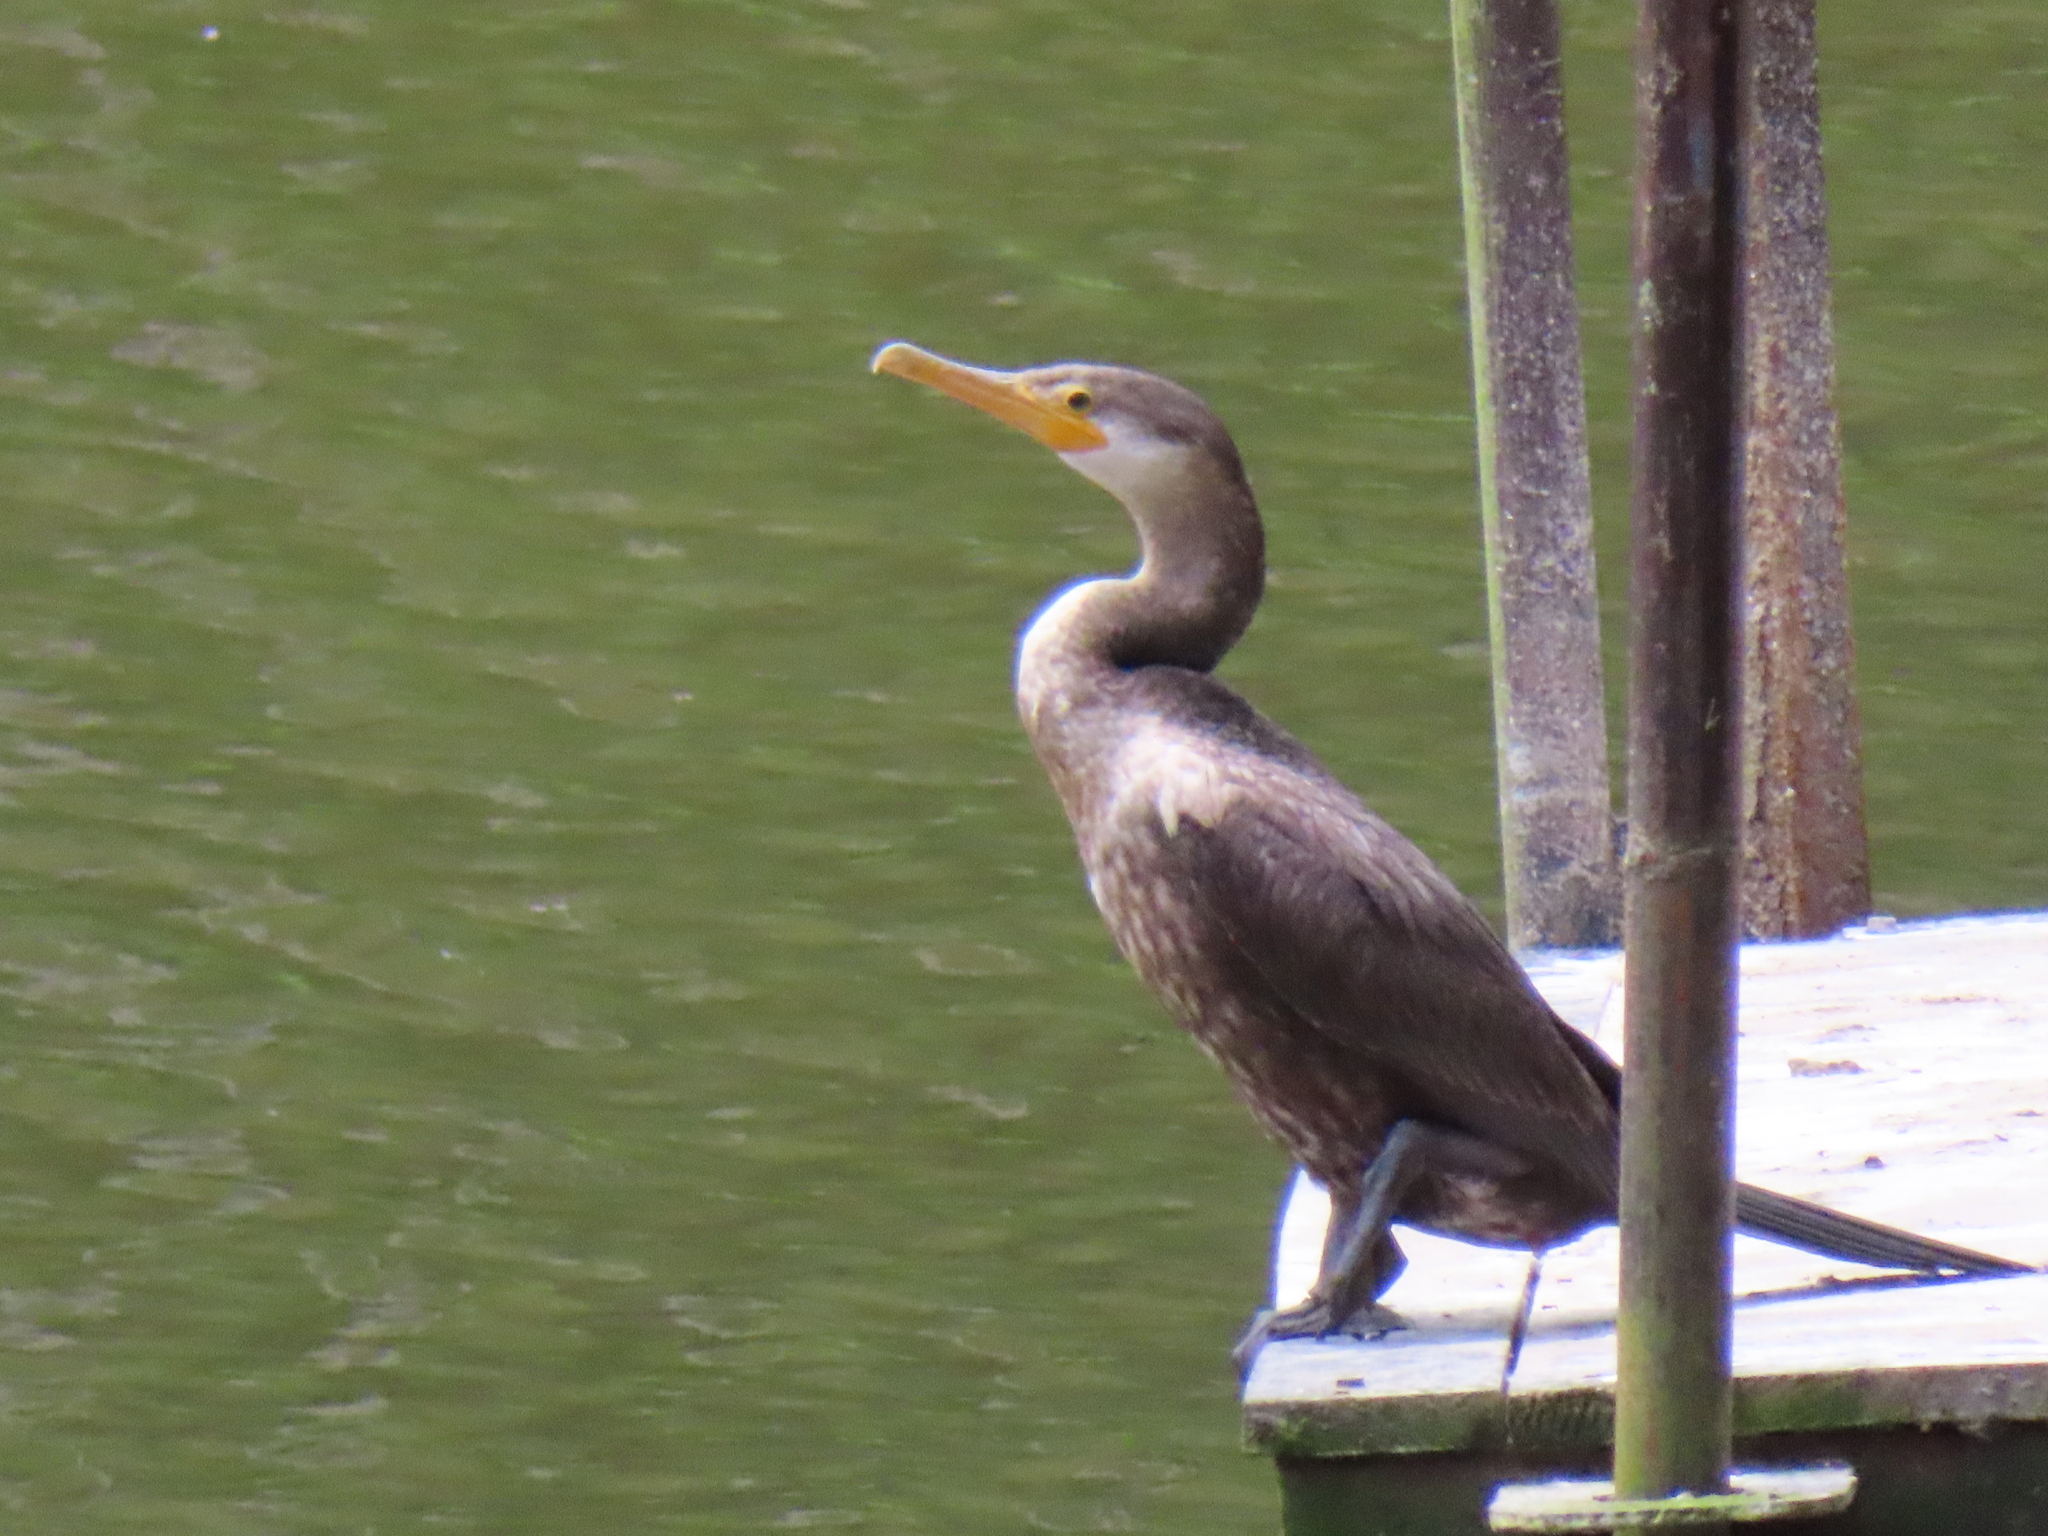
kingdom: Animalia
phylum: Chordata
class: Aves
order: Suliformes
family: Phalacrocoracidae
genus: Phalacrocorax
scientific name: Phalacrocorax brasilianus
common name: Neotropic cormorant
